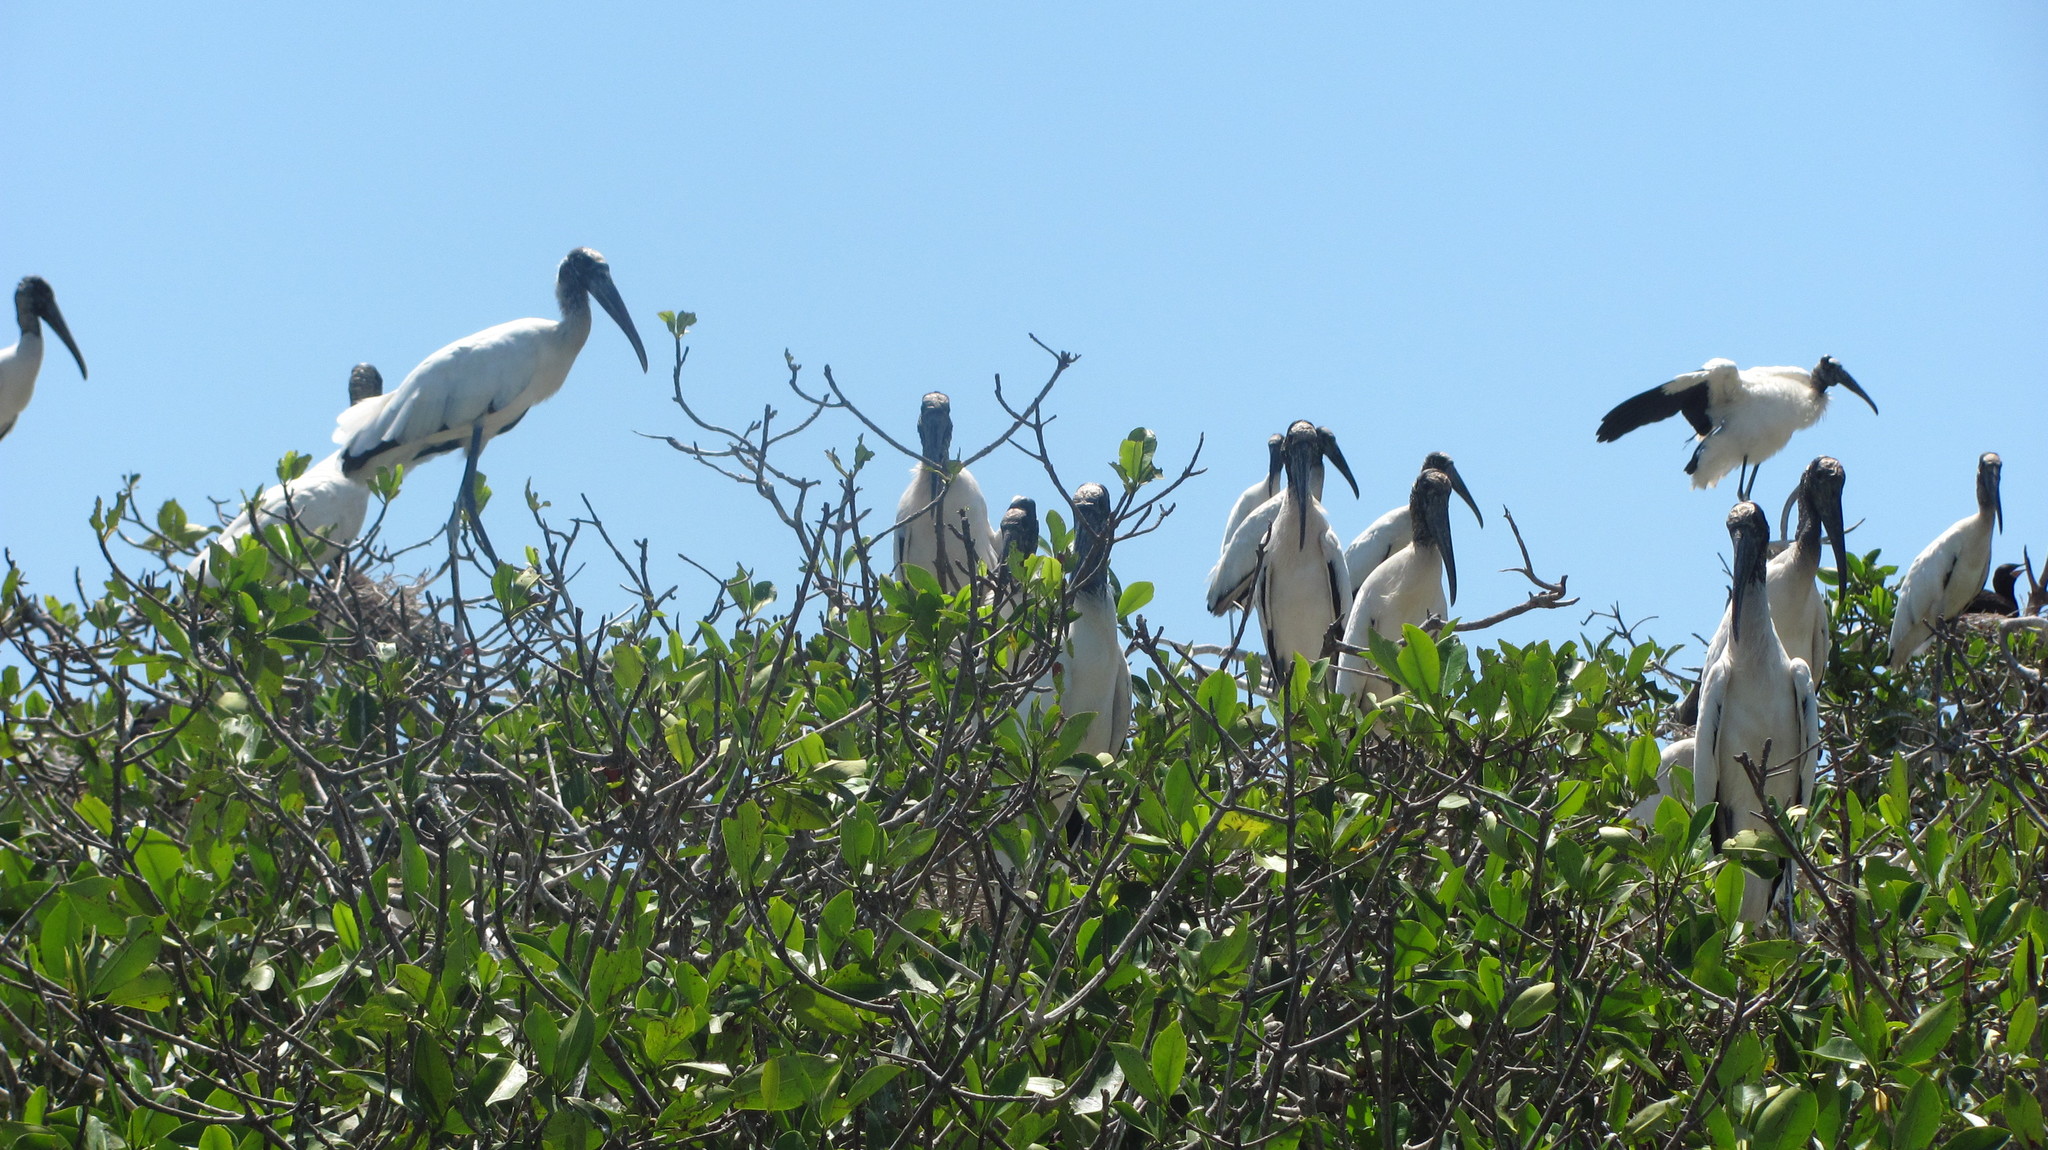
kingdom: Animalia
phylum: Chordata
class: Aves
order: Ciconiiformes
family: Ciconiidae
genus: Mycteria
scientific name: Mycteria americana
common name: Wood stork
